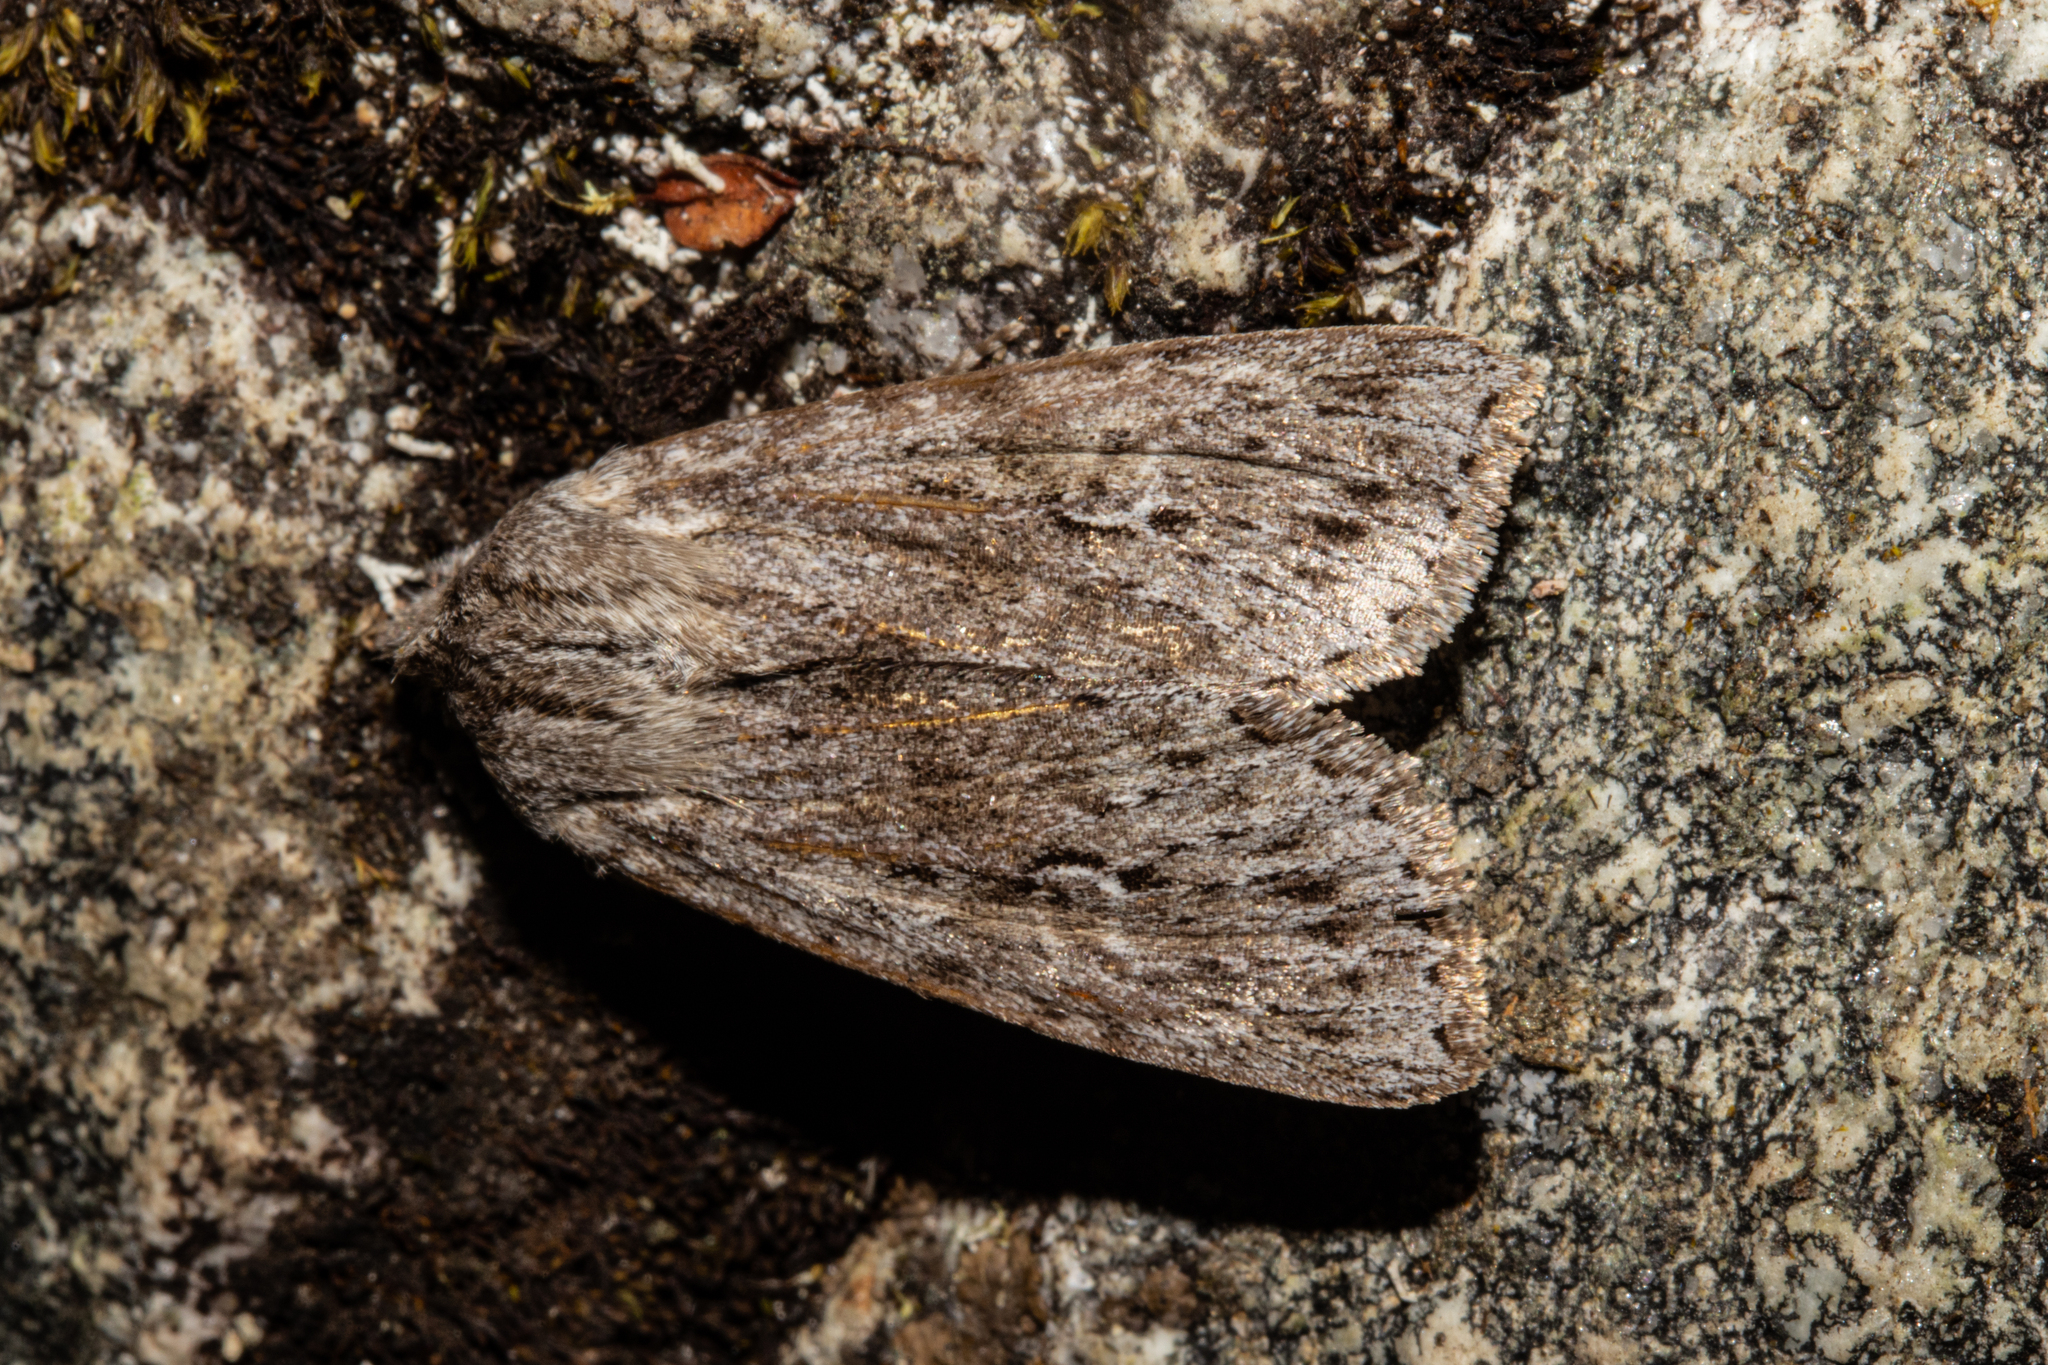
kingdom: Animalia
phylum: Arthropoda
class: Insecta
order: Lepidoptera
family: Noctuidae
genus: Physetica
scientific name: Physetica sequens
